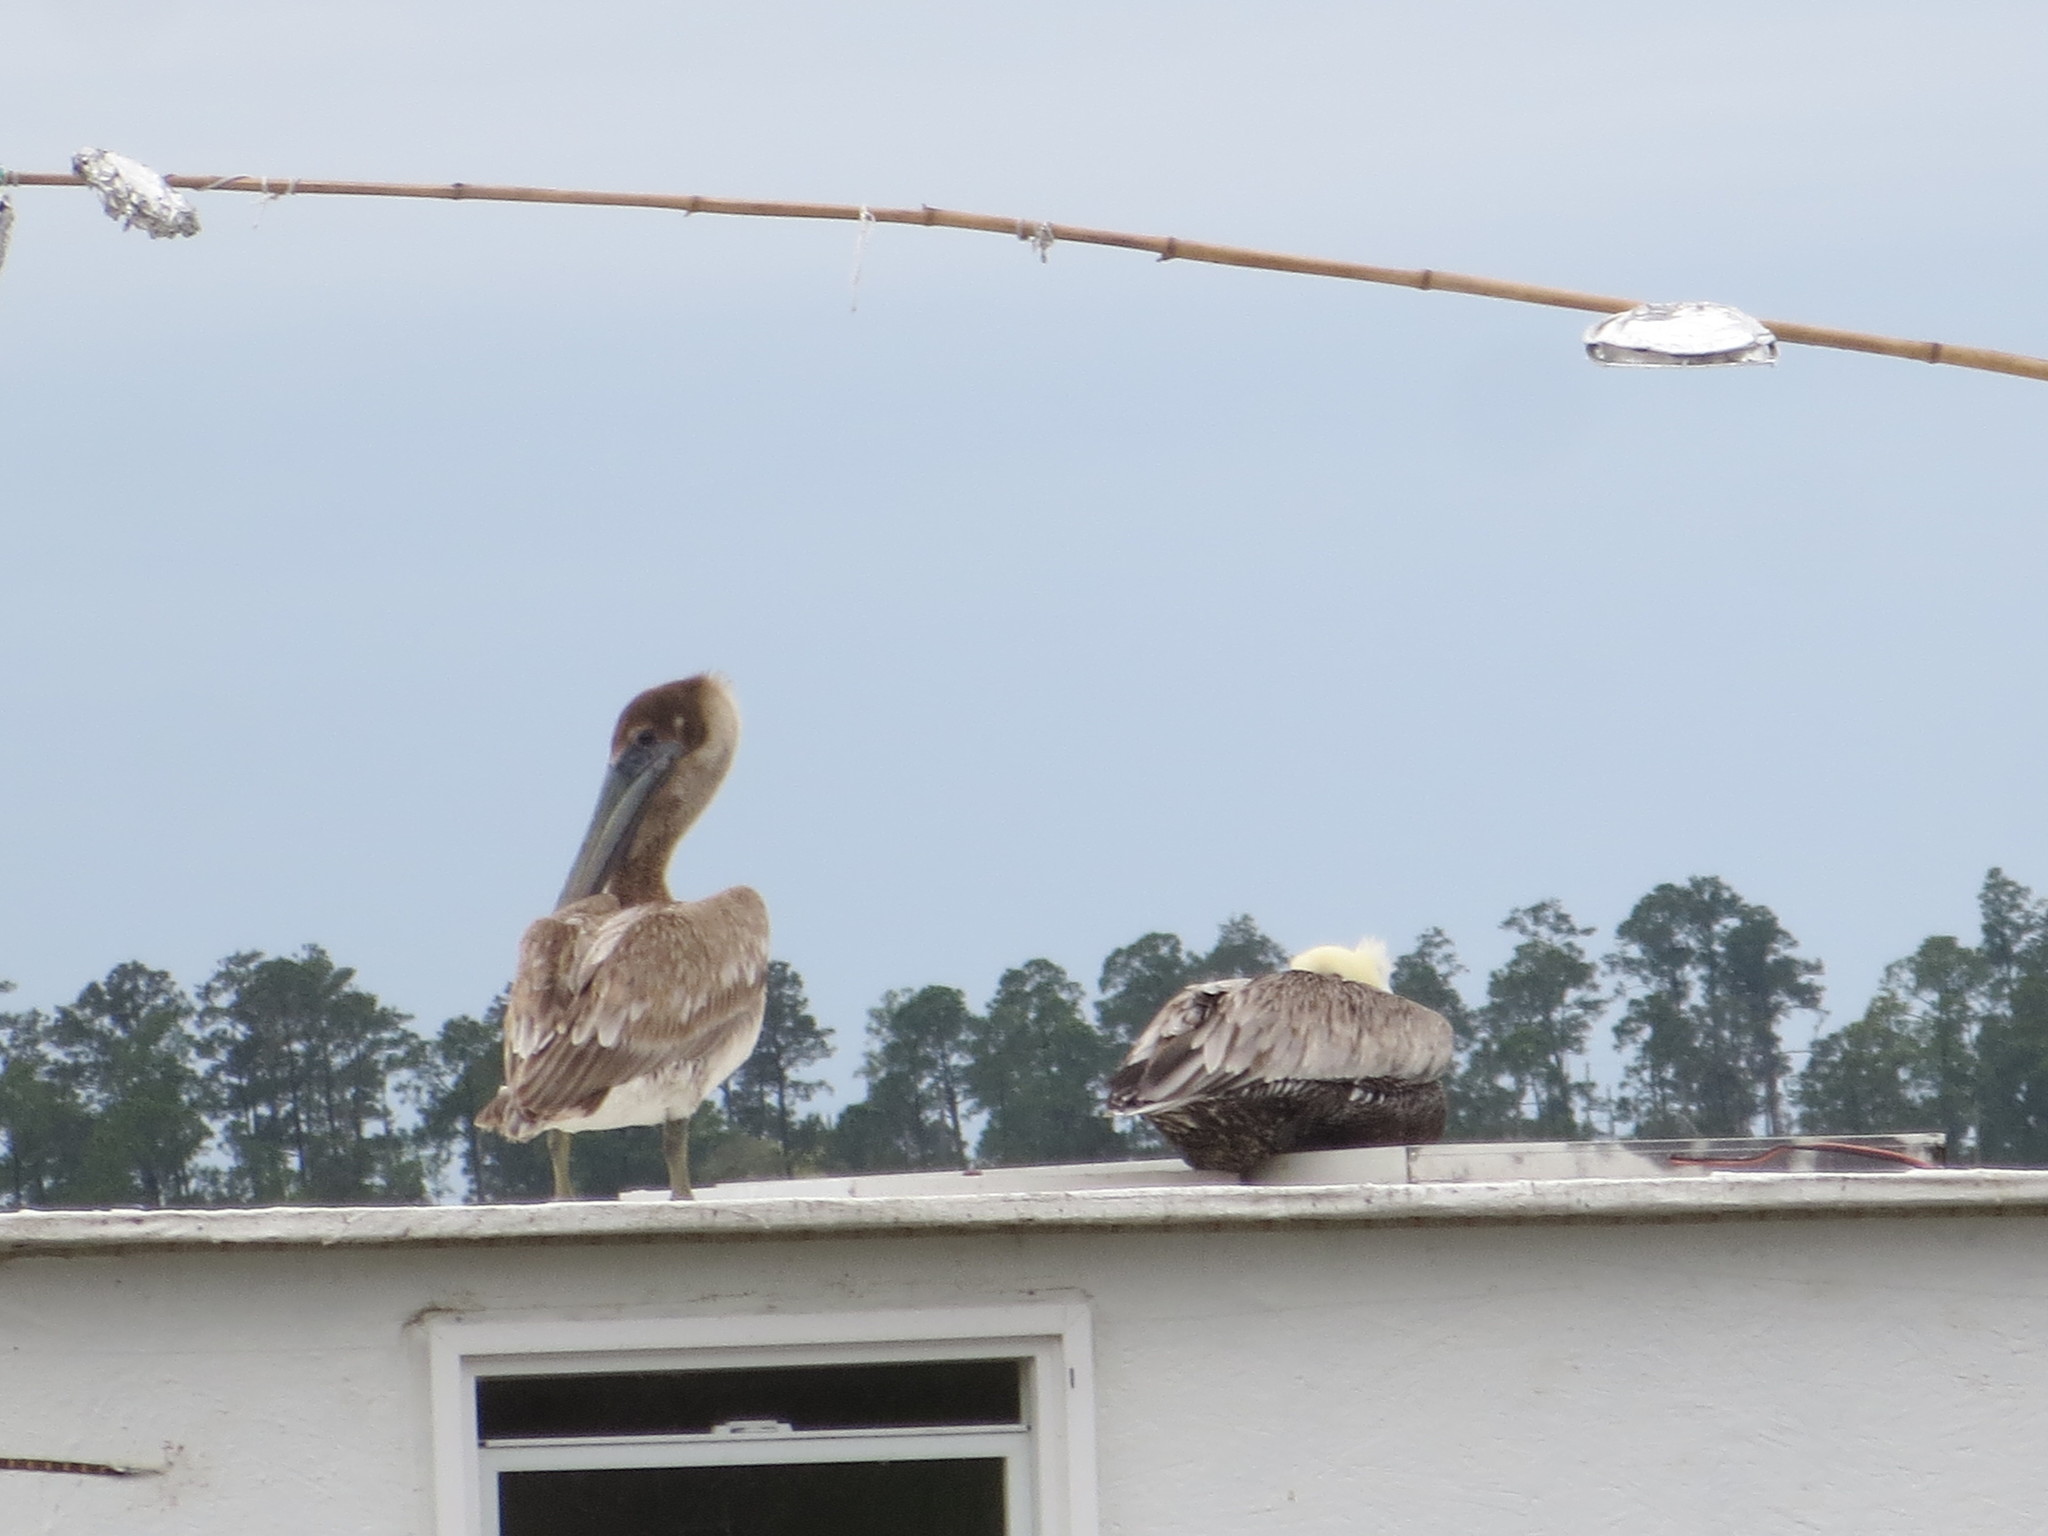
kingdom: Animalia
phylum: Chordata
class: Aves
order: Pelecaniformes
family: Pelecanidae
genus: Pelecanus
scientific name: Pelecanus occidentalis
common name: Brown pelican
